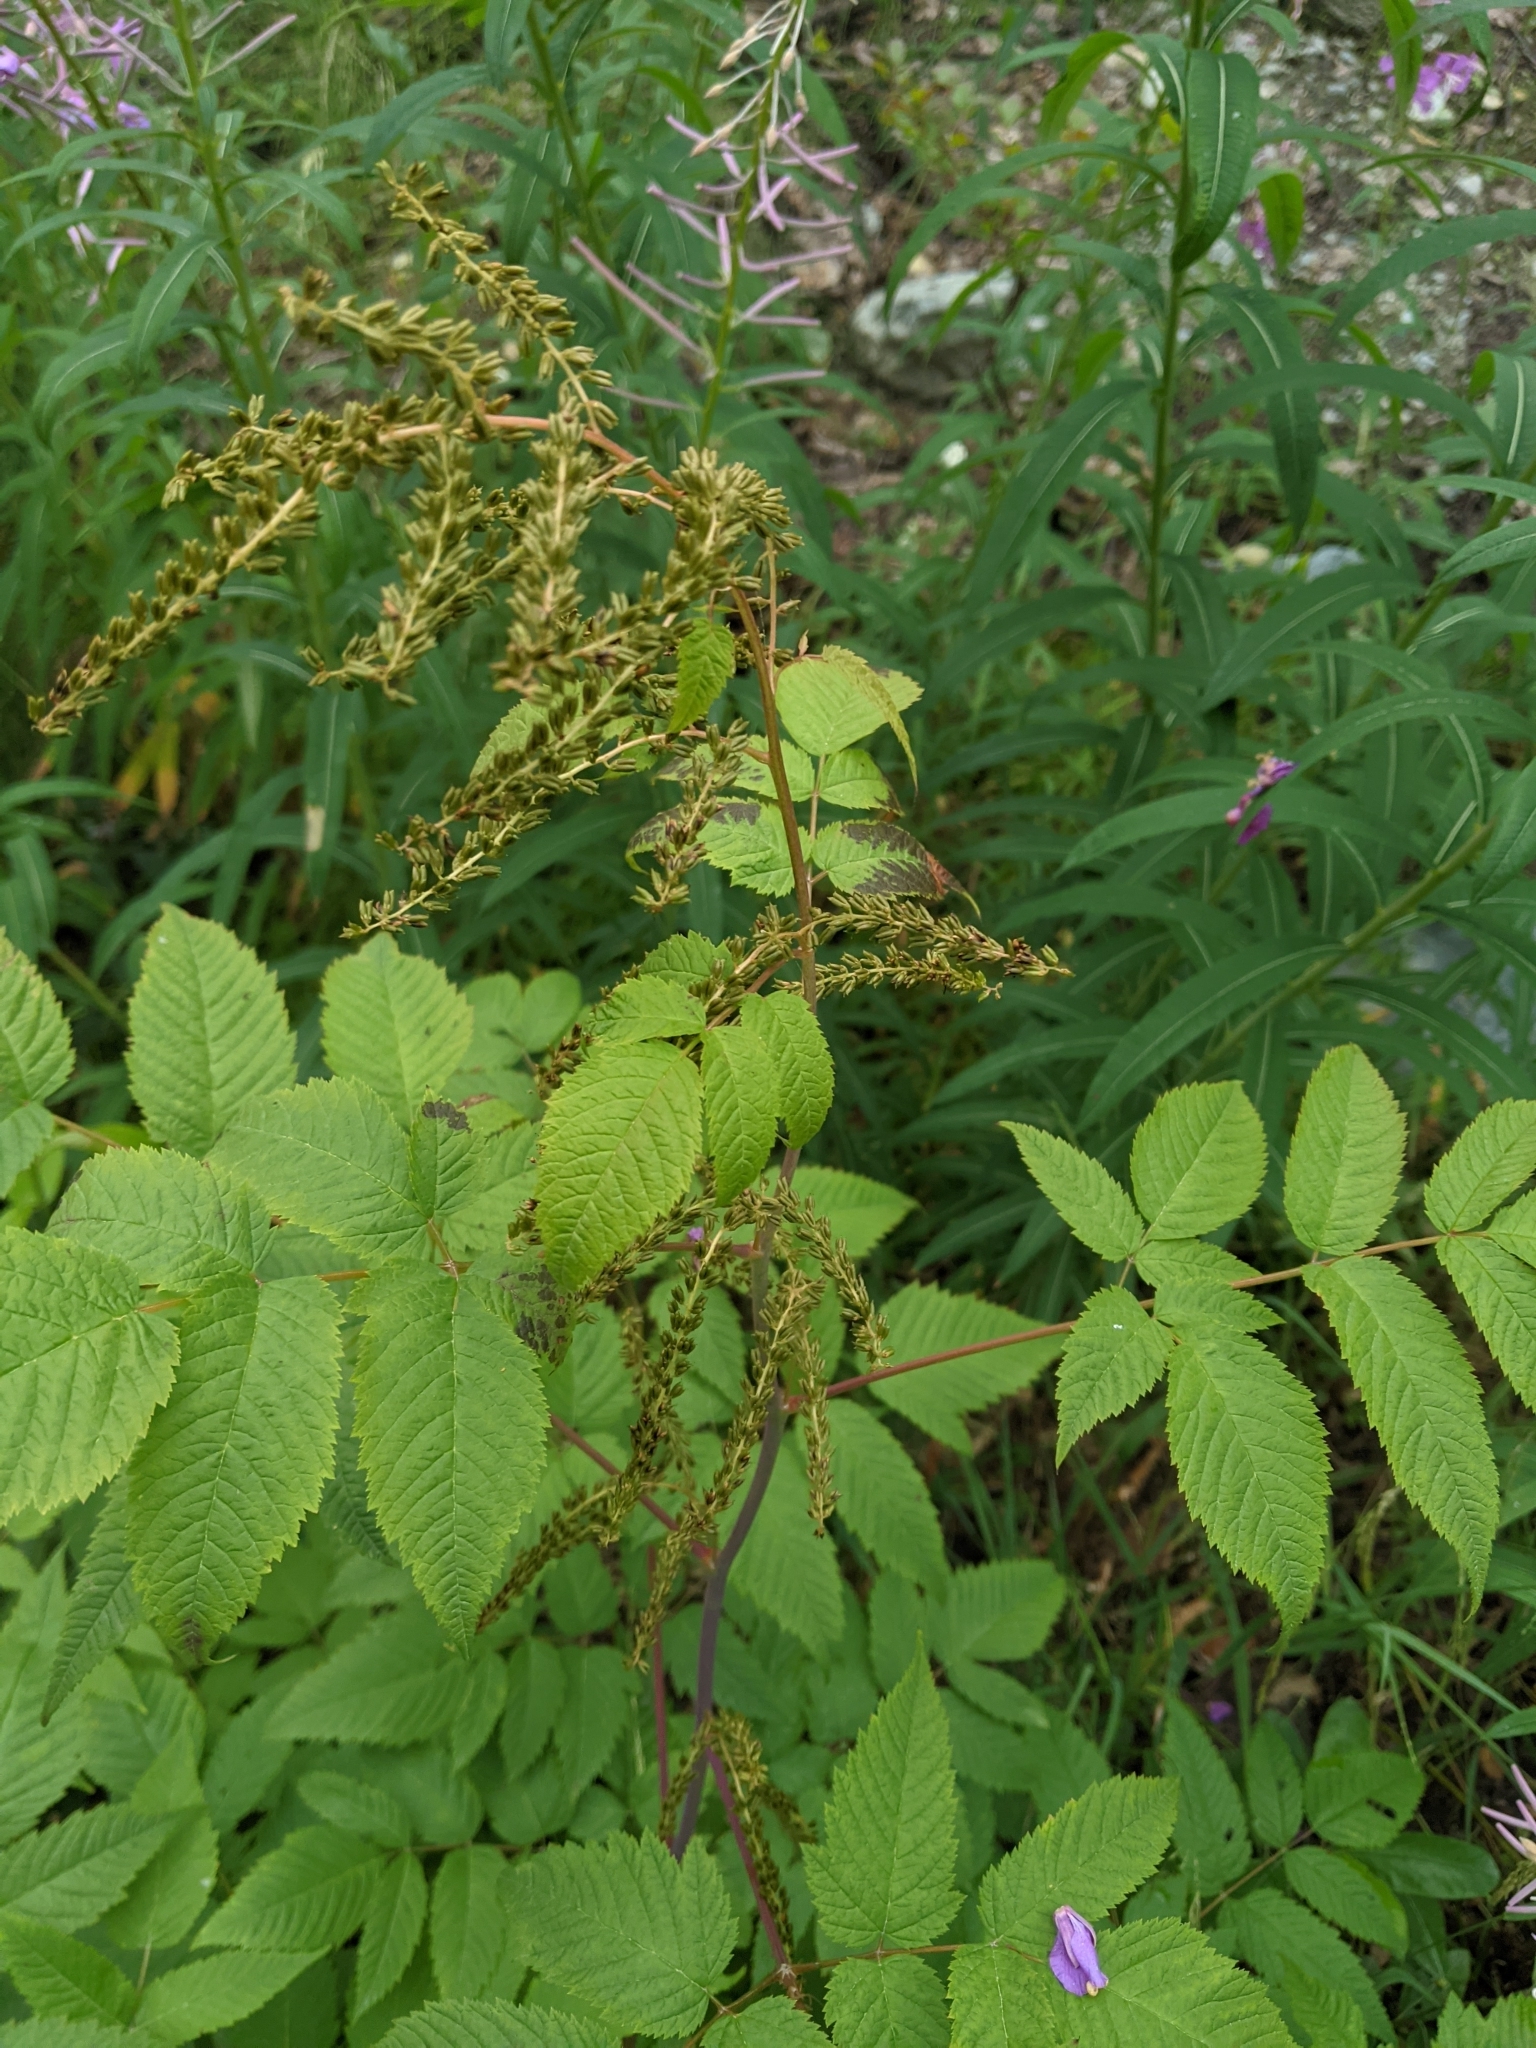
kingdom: Plantae
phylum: Tracheophyta
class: Magnoliopsida
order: Rosales
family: Rosaceae
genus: Aruncus
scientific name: Aruncus dioicus
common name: Buck's-beard
